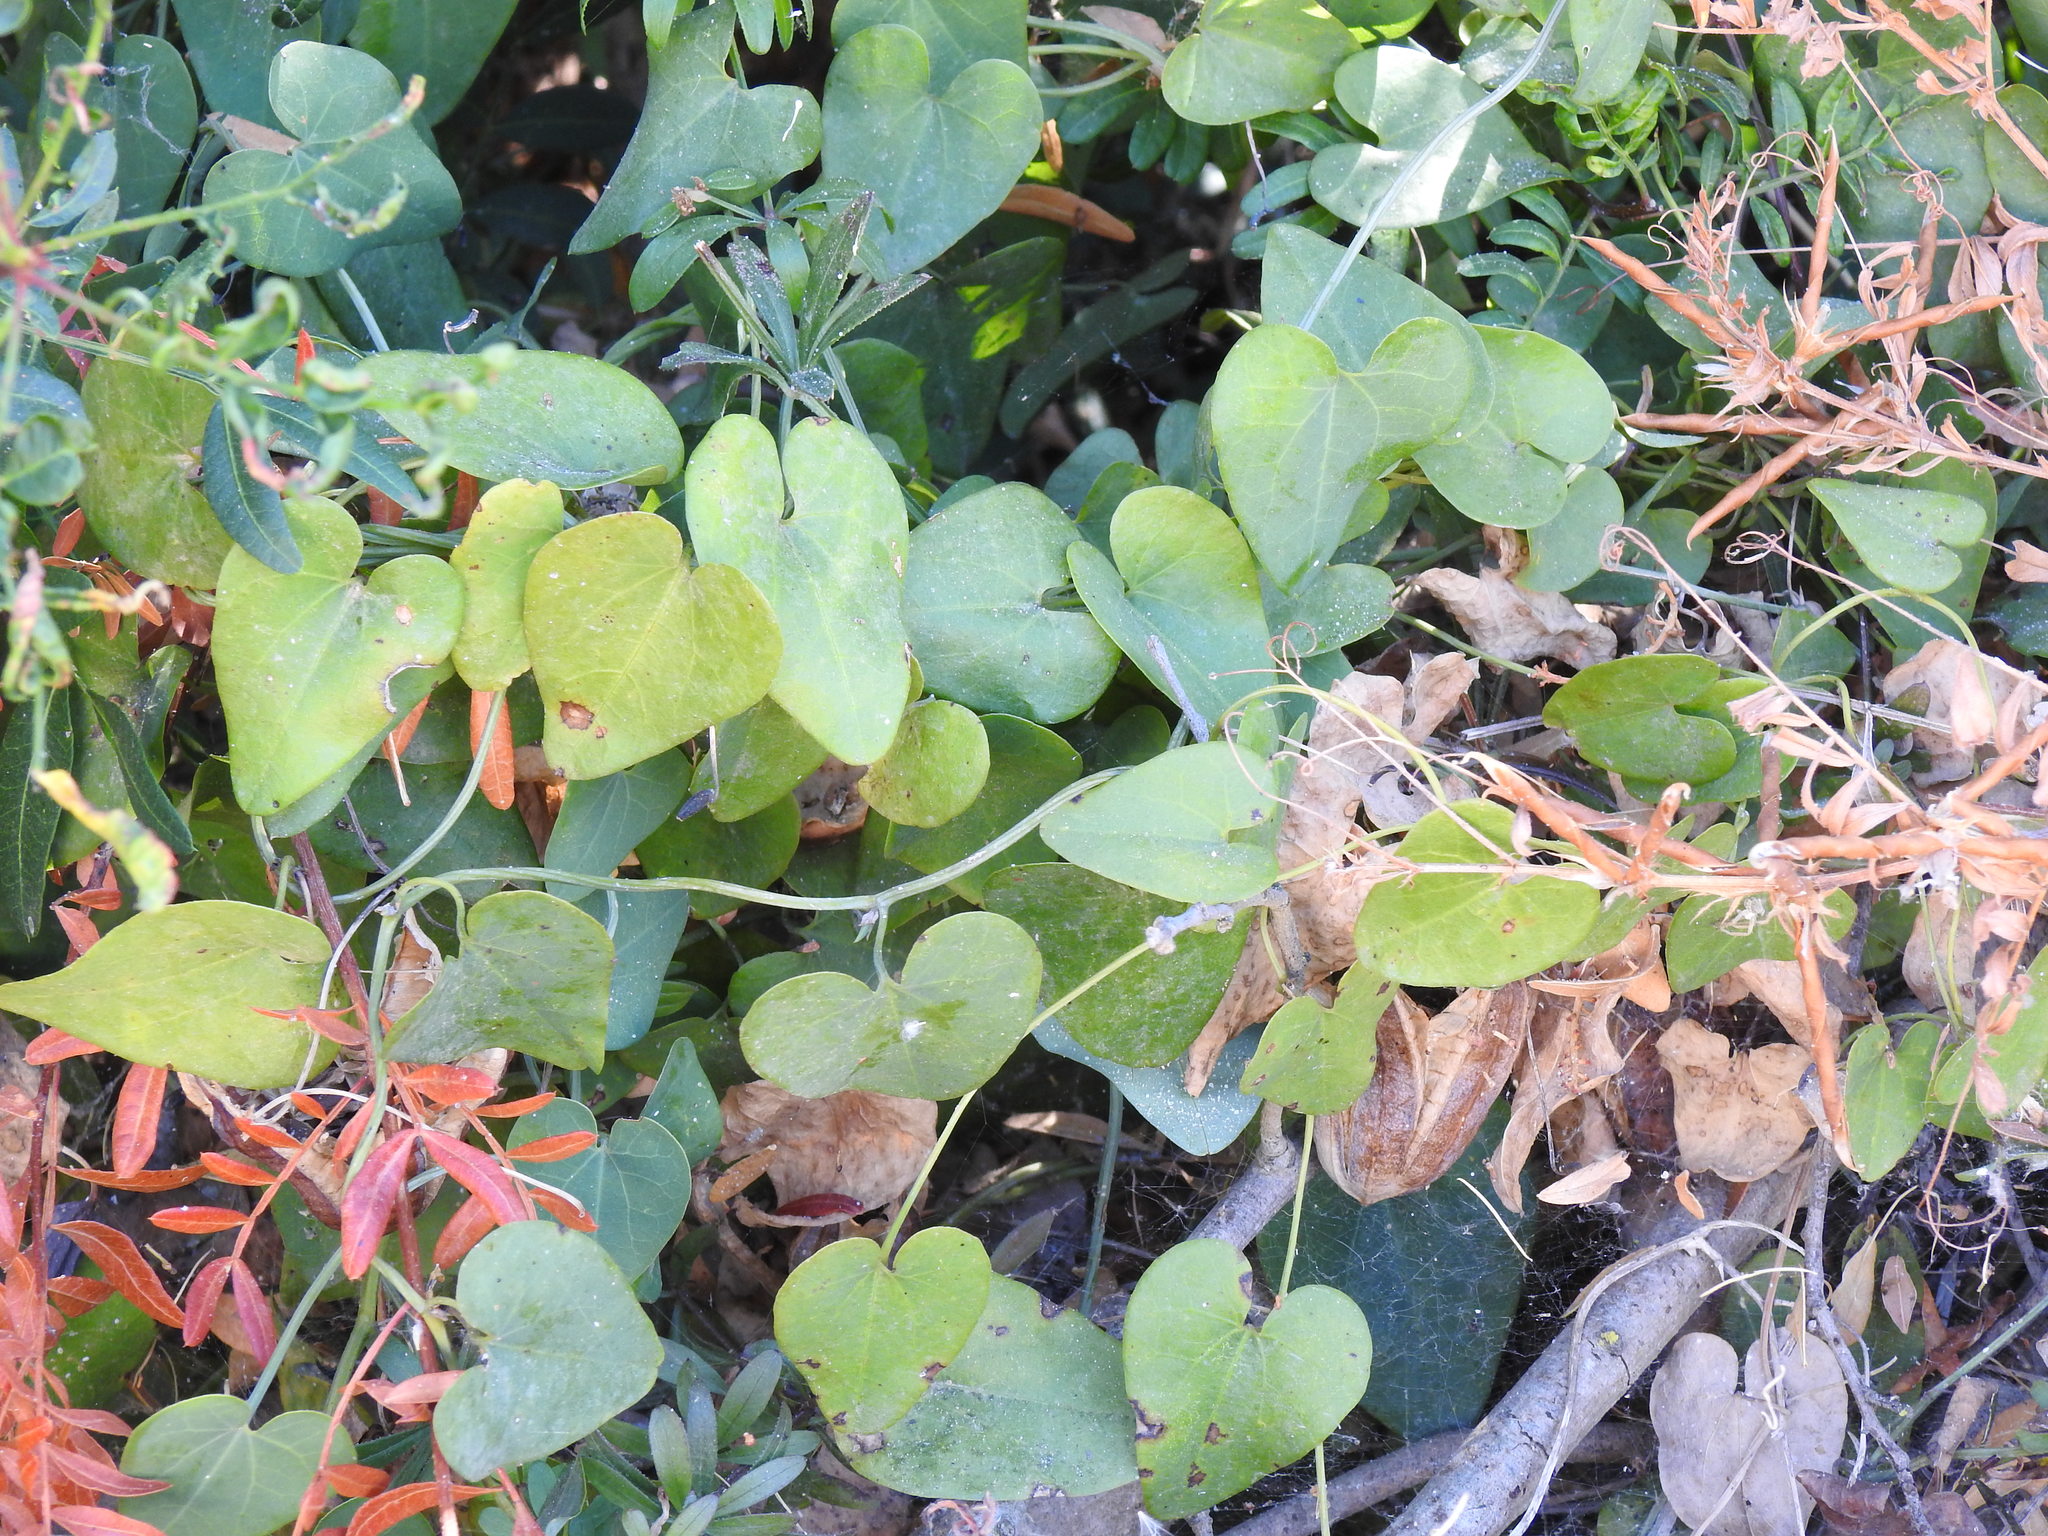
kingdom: Plantae
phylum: Tracheophyta
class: Magnoliopsida
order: Piperales
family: Aristolochiaceae
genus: Aristolochia
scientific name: Aristolochia baetica
